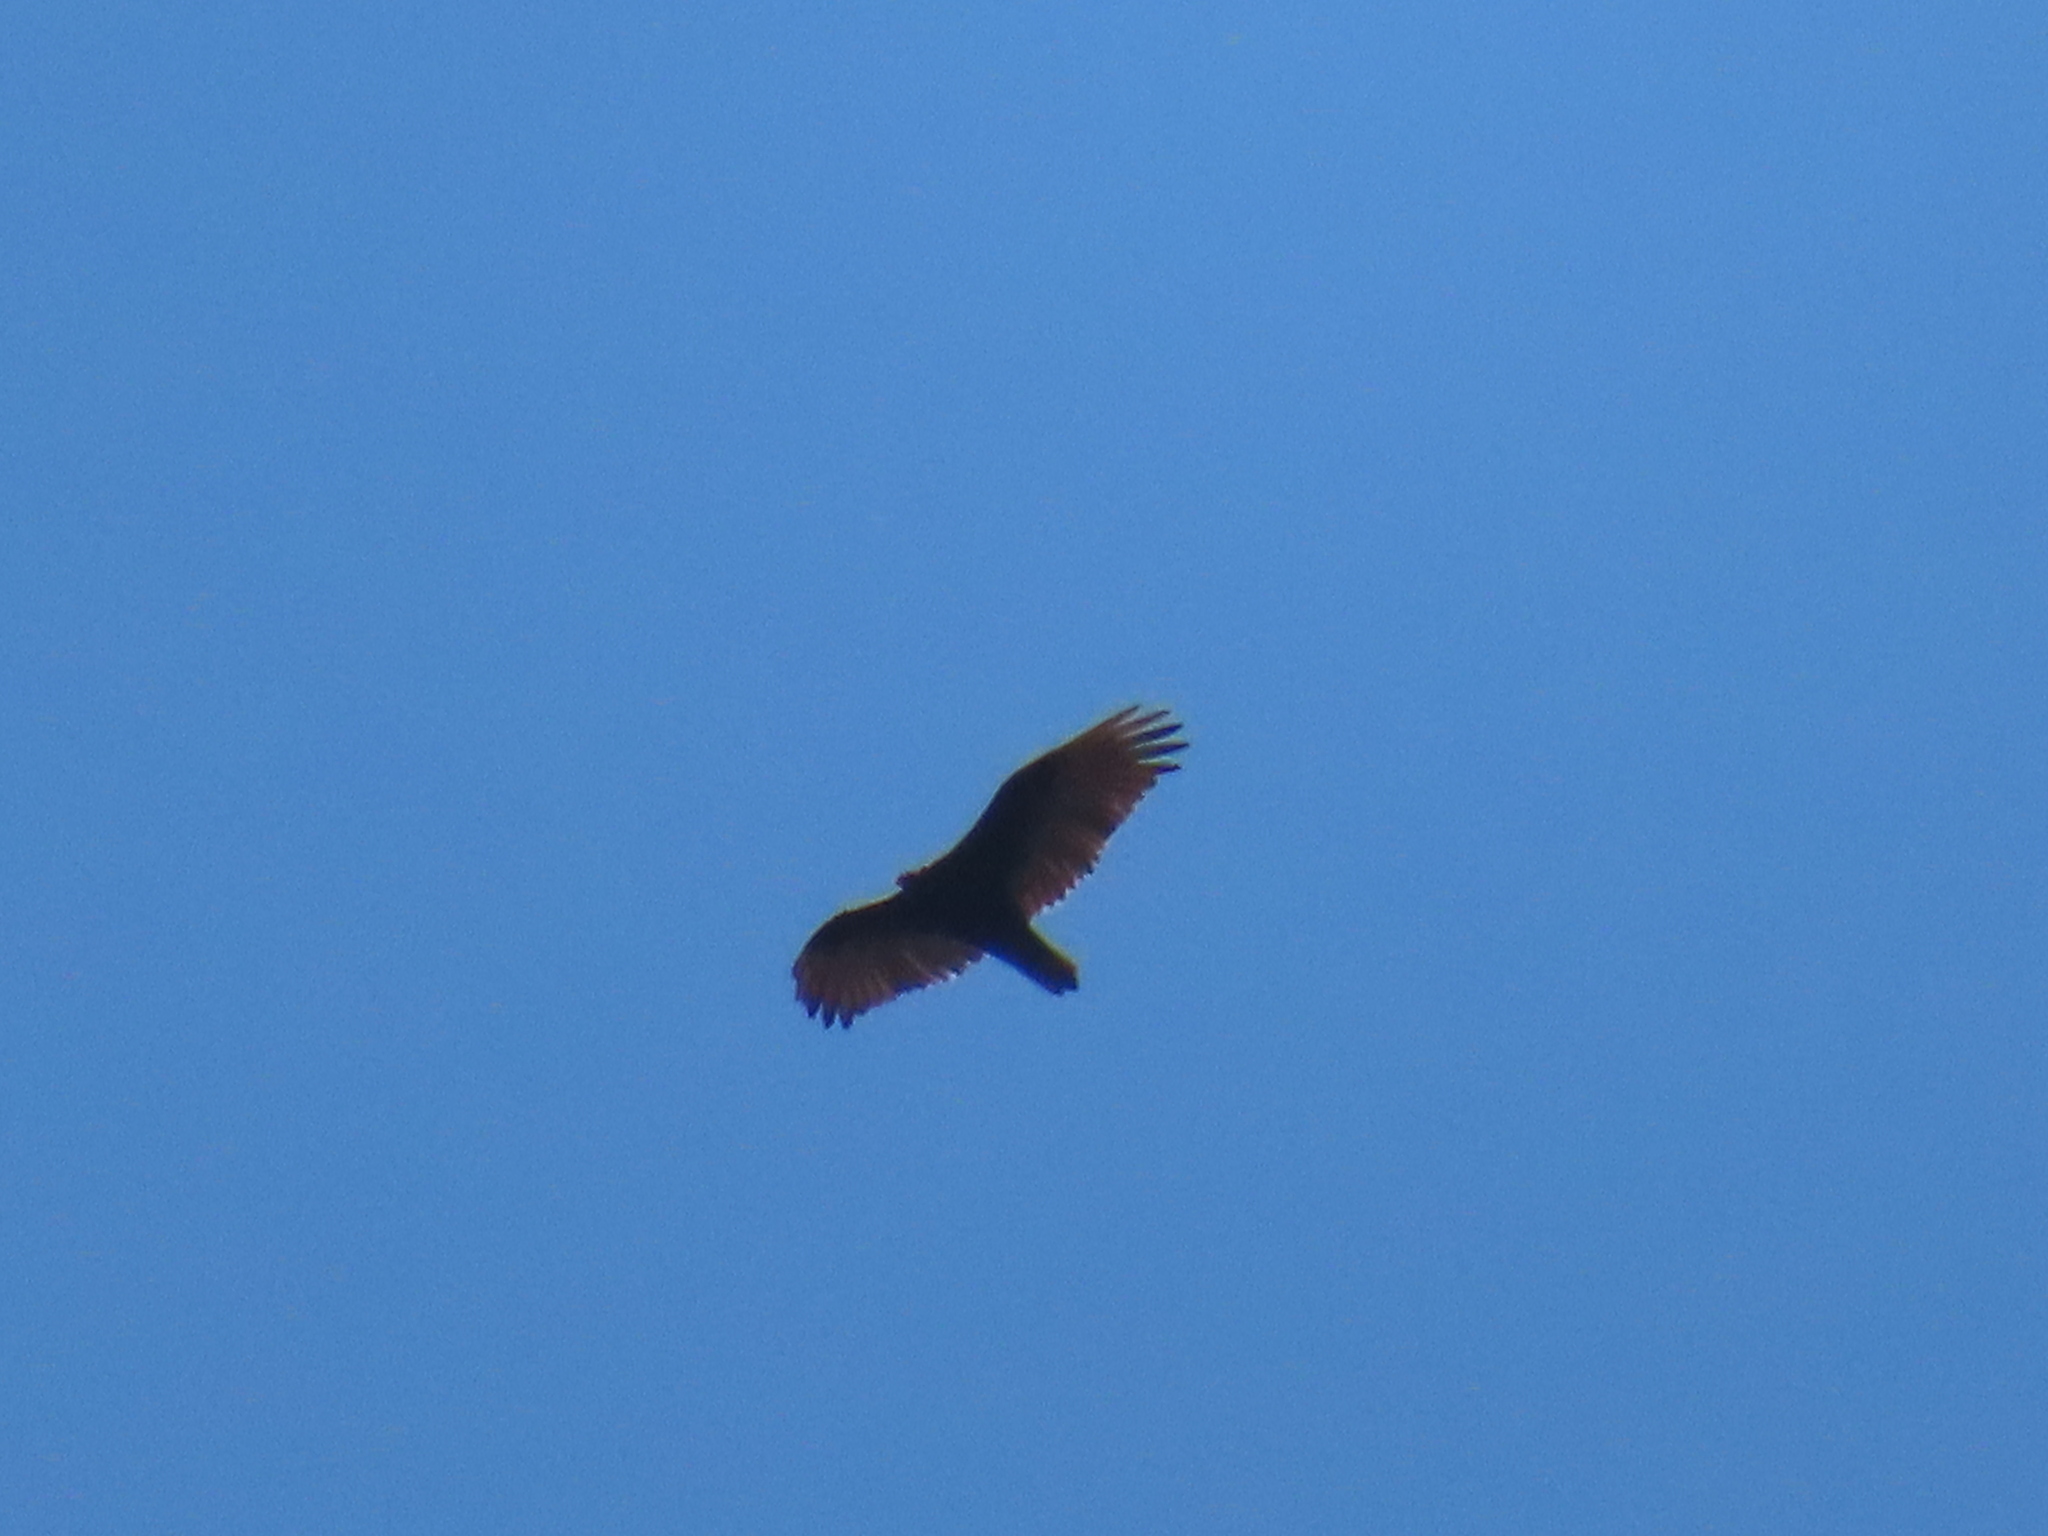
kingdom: Animalia
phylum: Chordata
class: Aves
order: Accipitriformes
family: Cathartidae
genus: Cathartes
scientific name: Cathartes aura
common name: Turkey vulture
